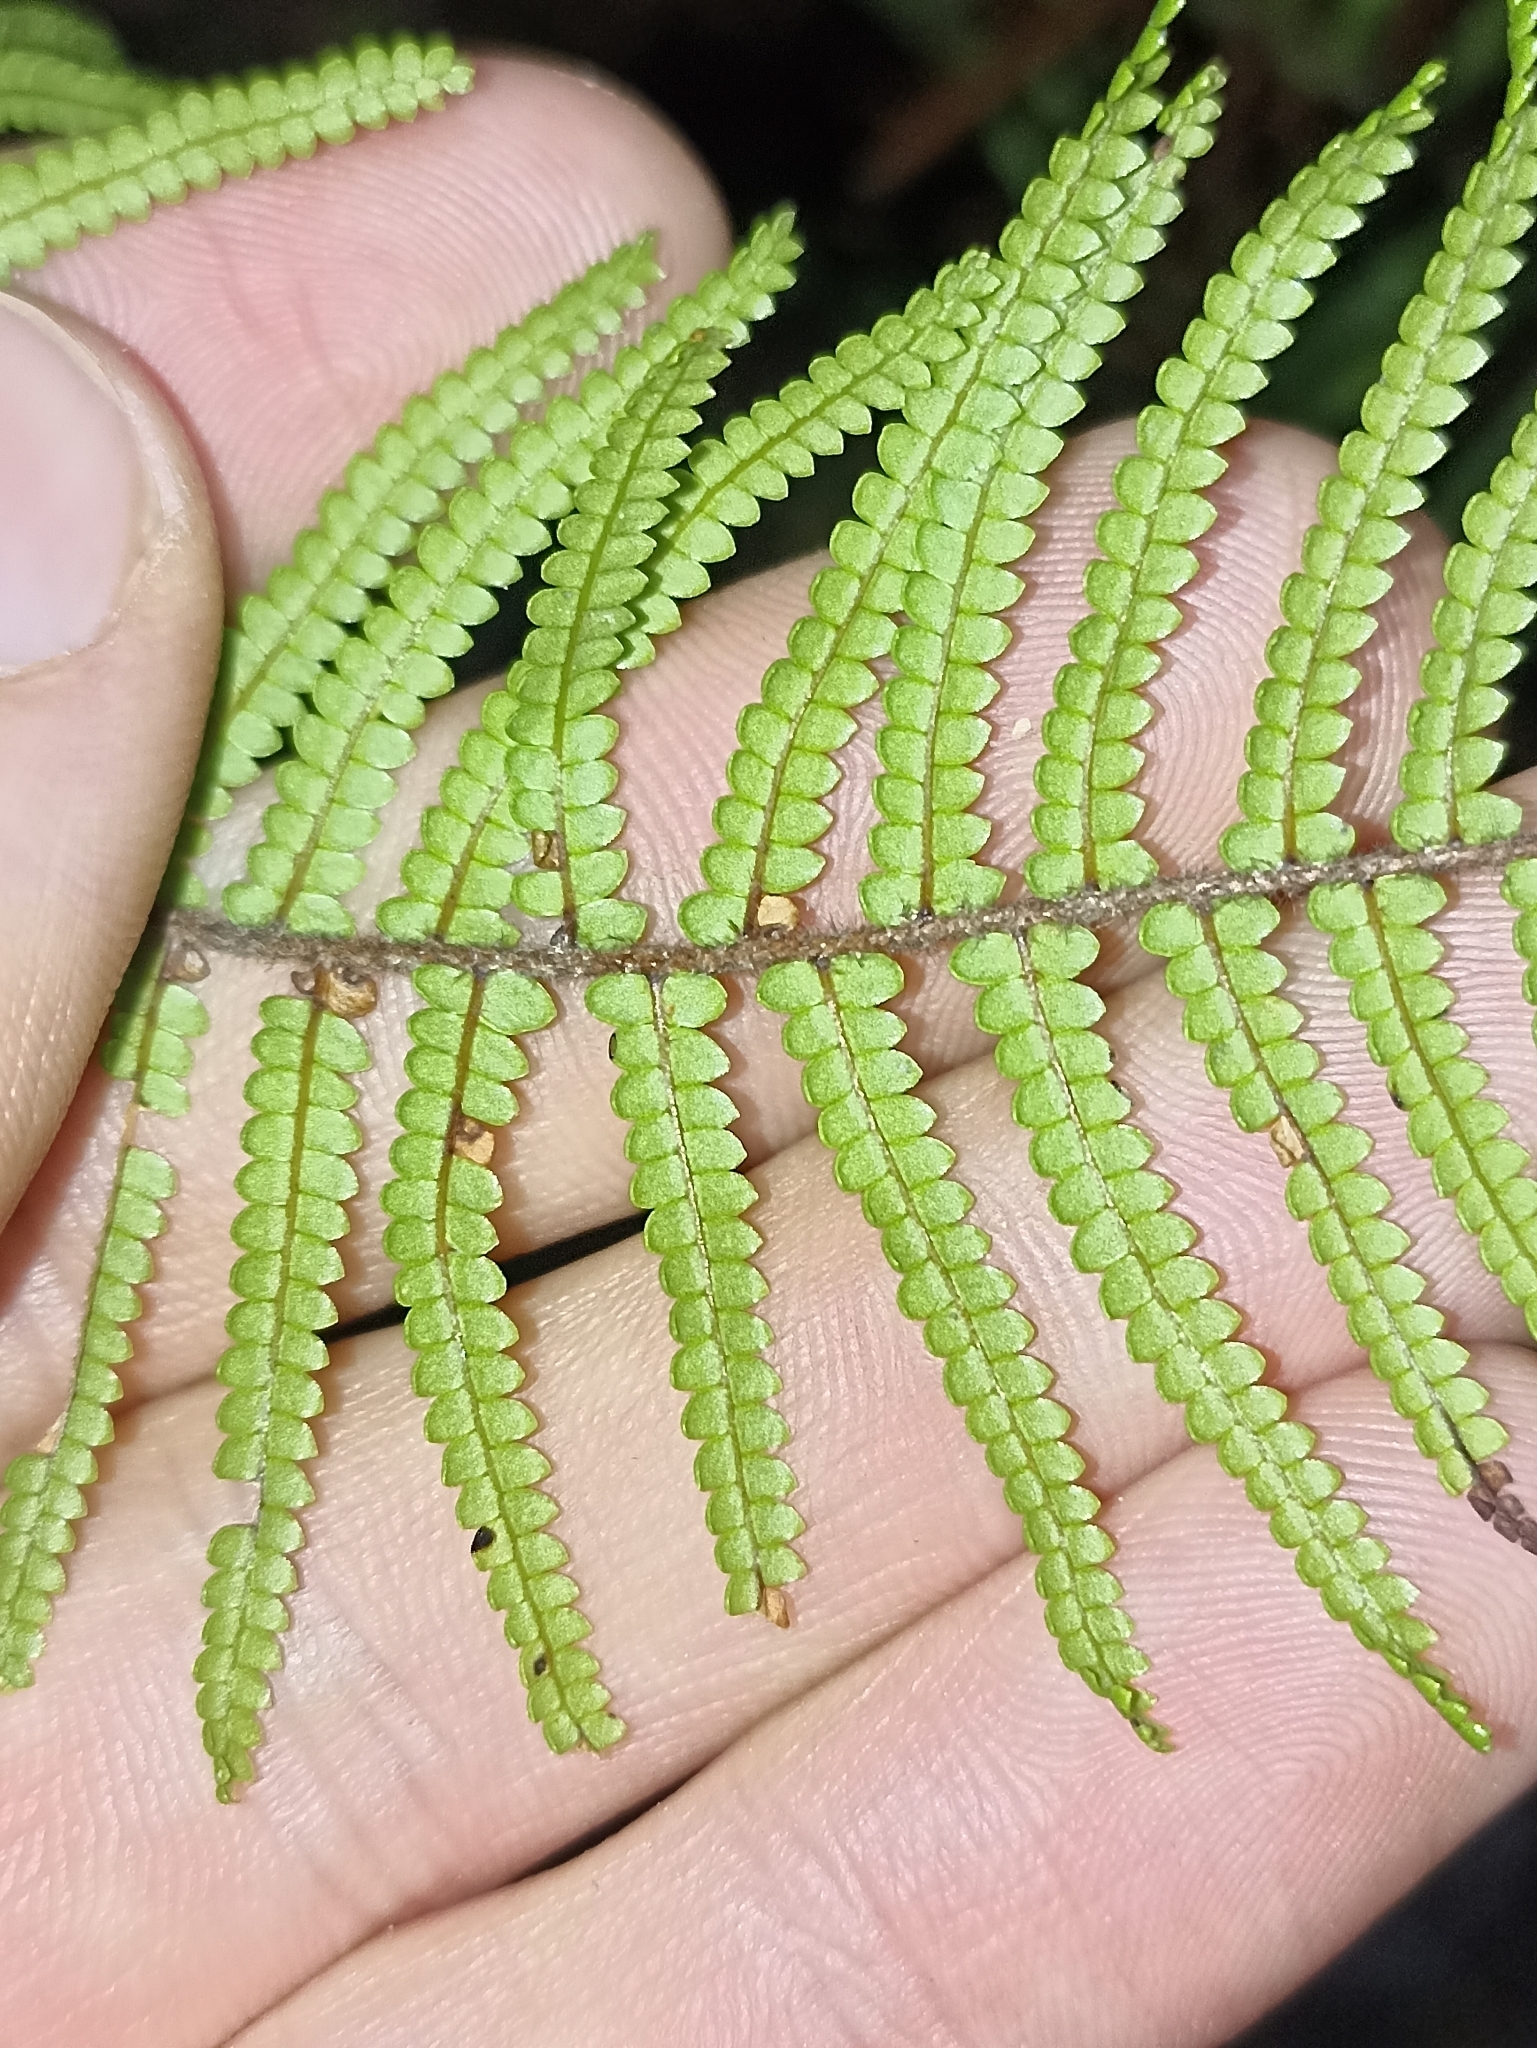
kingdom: Plantae
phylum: Tracheophyta
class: Polypodiopsida
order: Gleicheniales
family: Gleicheniaceae
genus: Gleichenia
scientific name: Gleichenia microphylla
